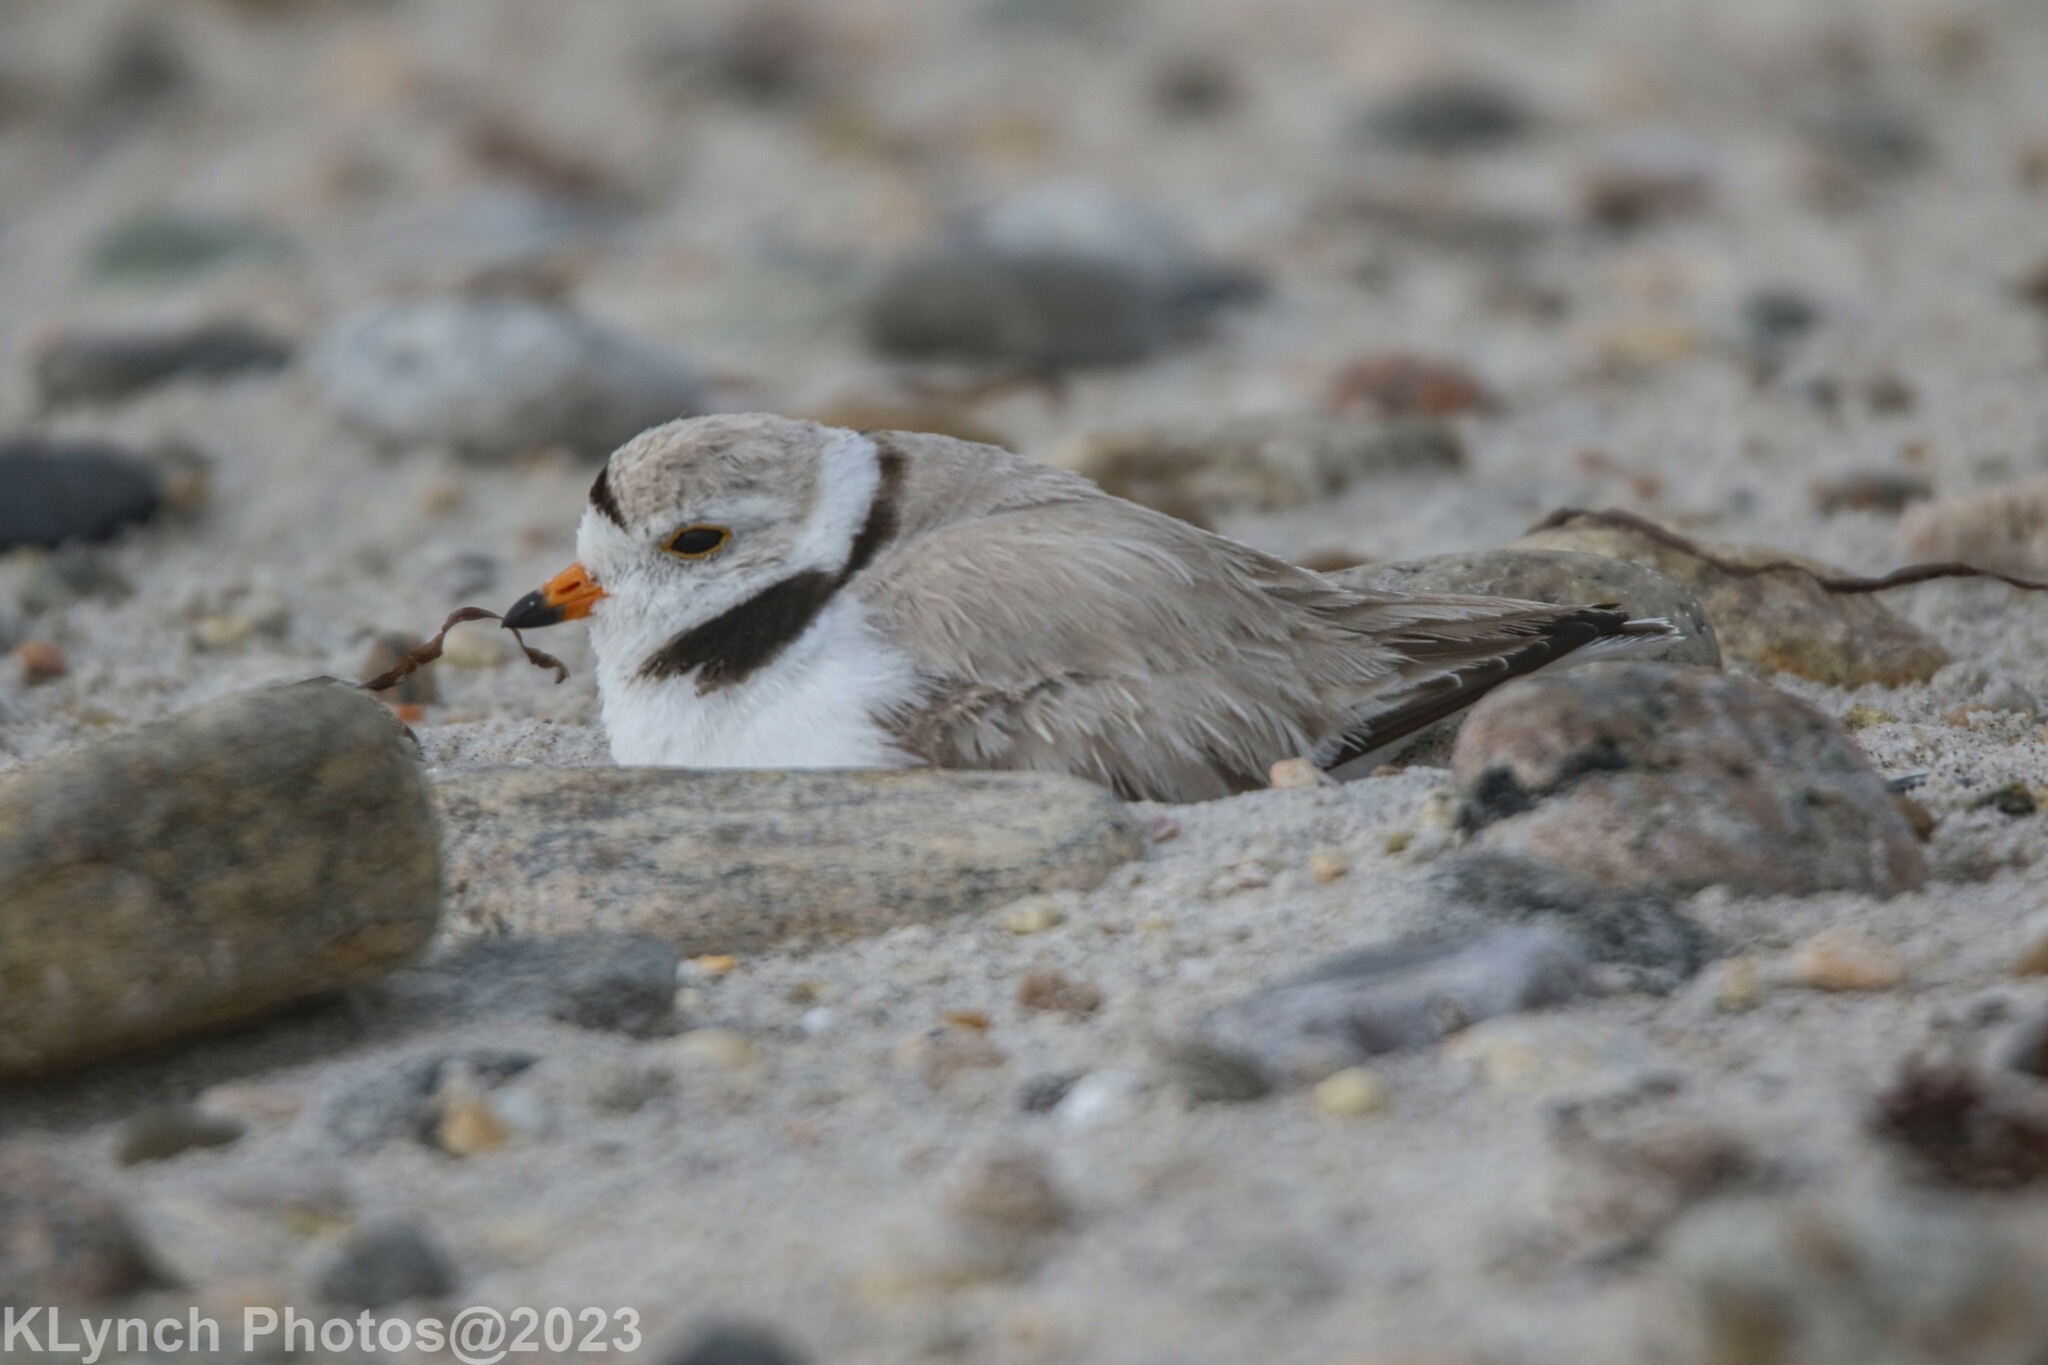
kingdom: Animalia
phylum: Chordata
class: Aves
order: Charadriiformes
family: Charadriidae
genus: Charadrius
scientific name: Charadrius melodus
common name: Piping plover
